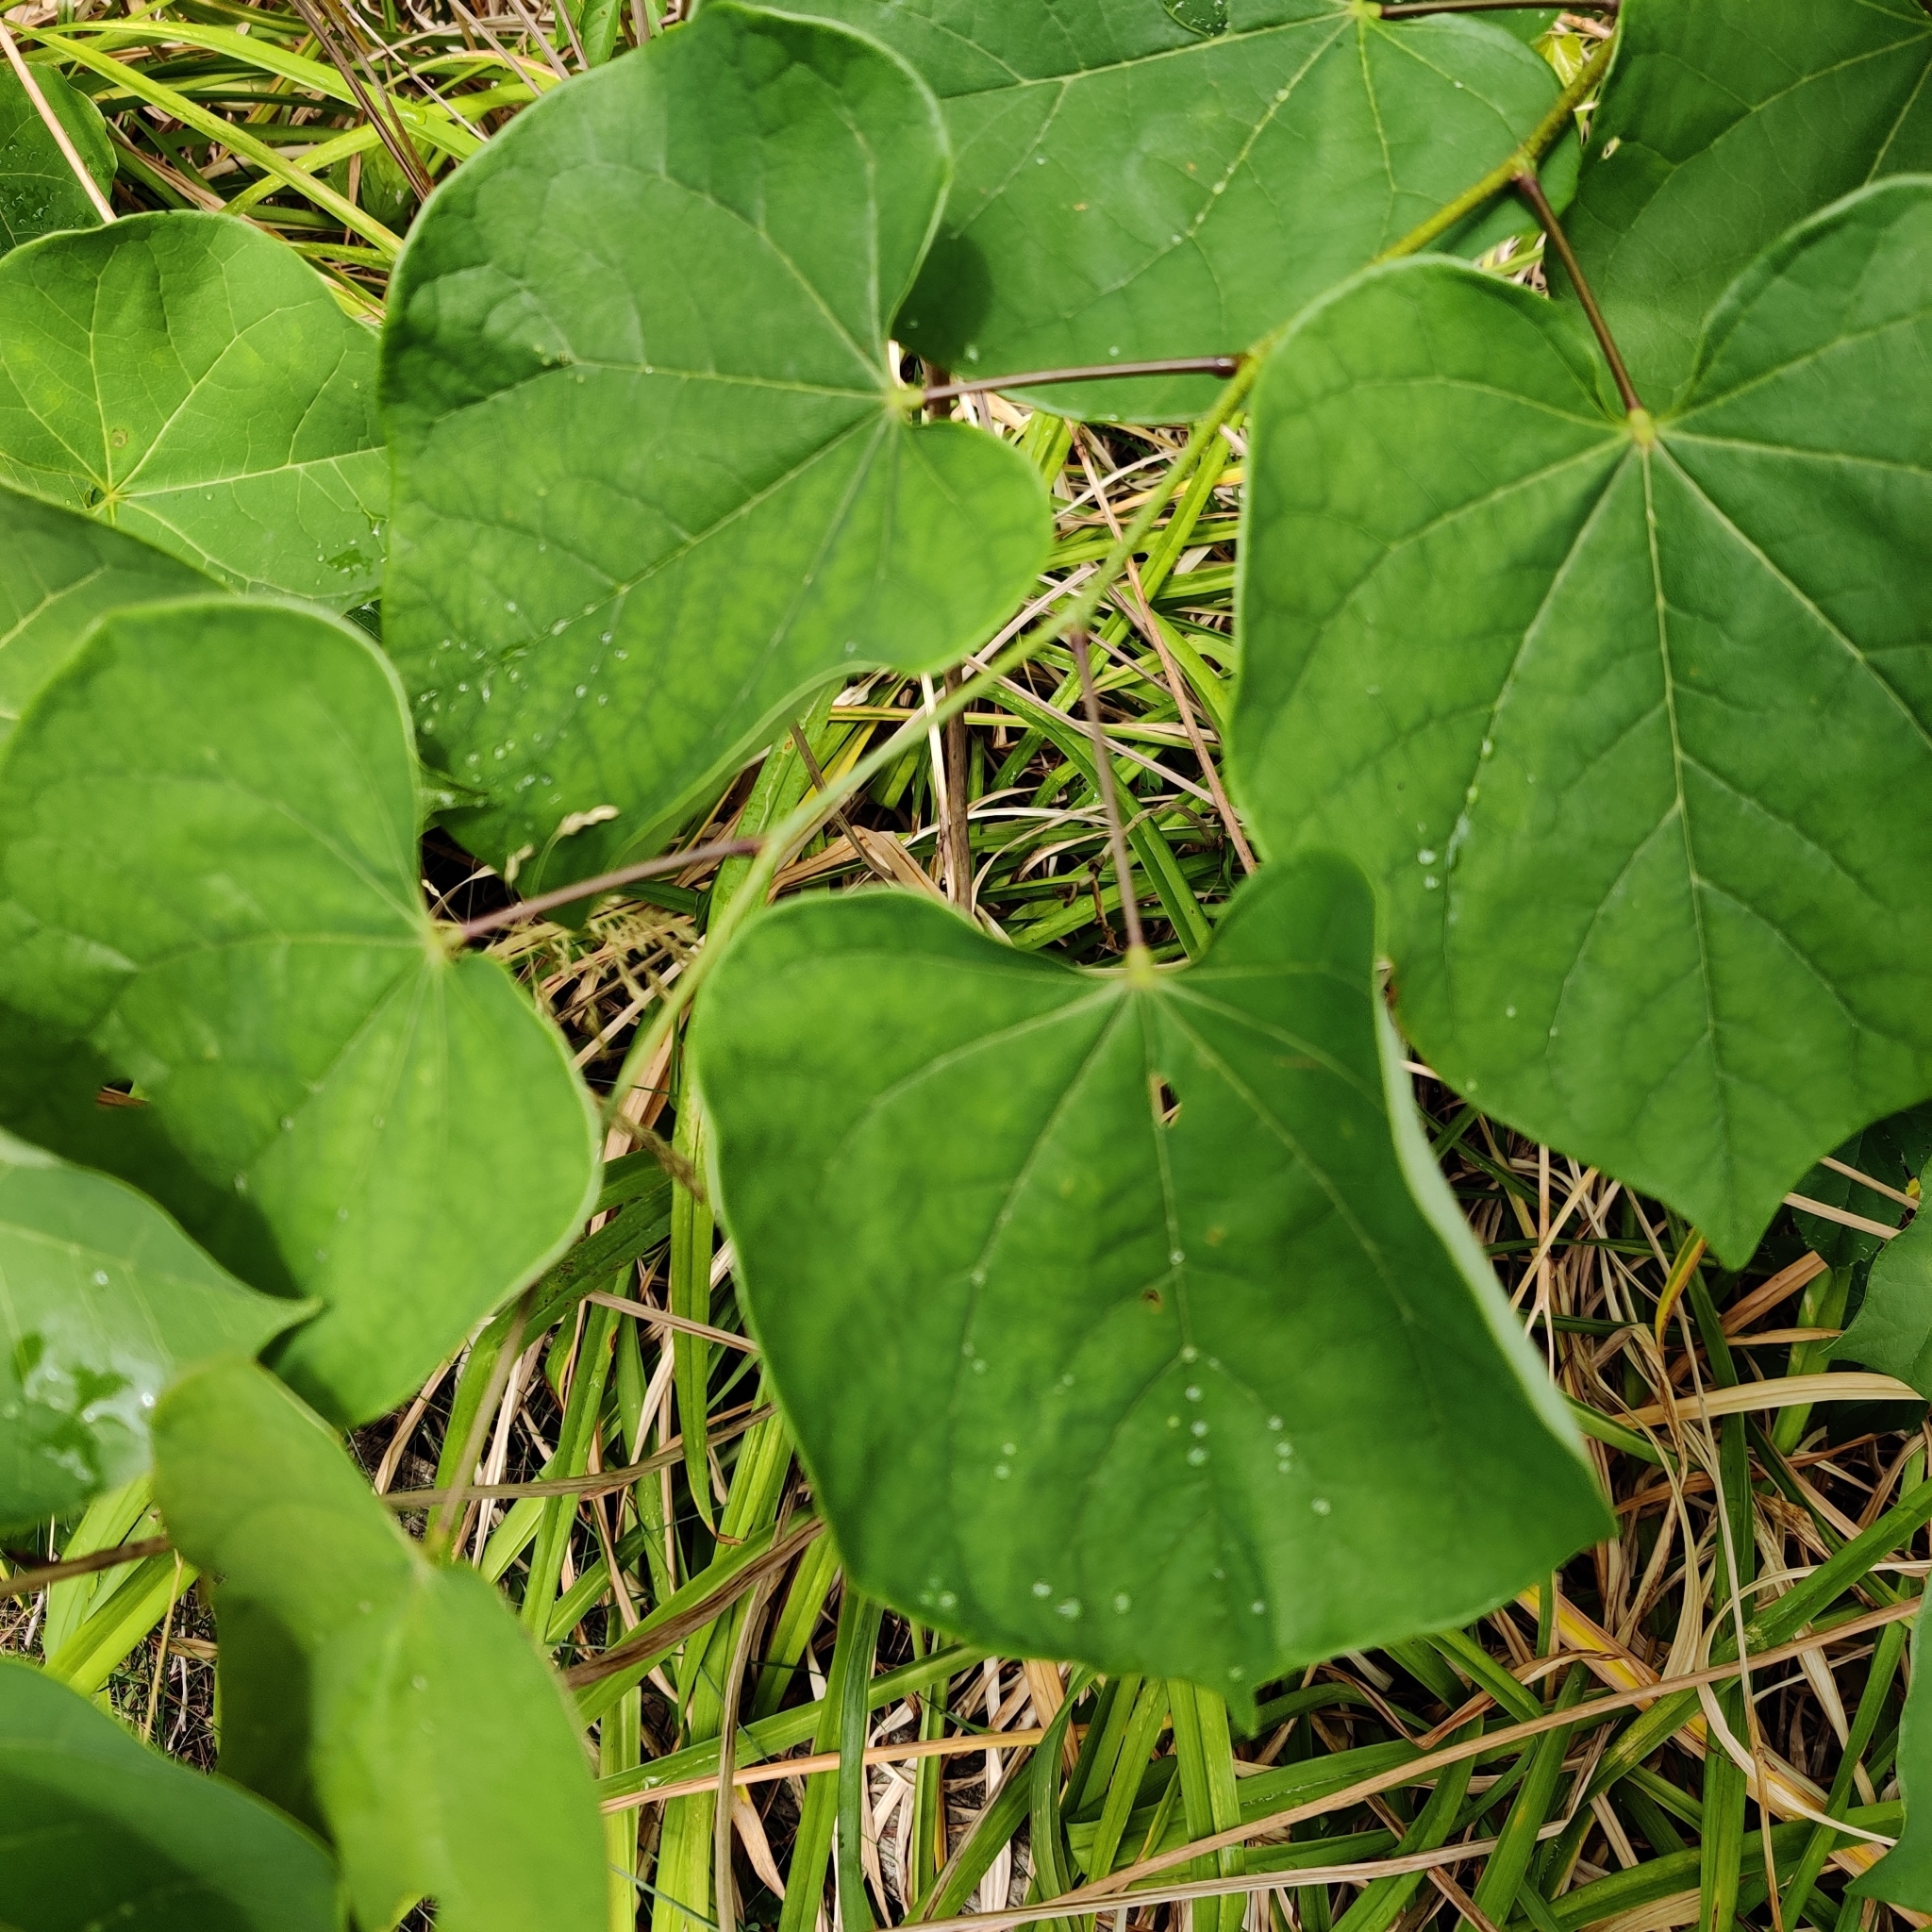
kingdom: Plantae
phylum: Tracheophyta
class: Magnoliopsida
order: Fabales
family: Fabaceae
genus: Cercis
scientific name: Cercis canadensis
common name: Eastern redbud
